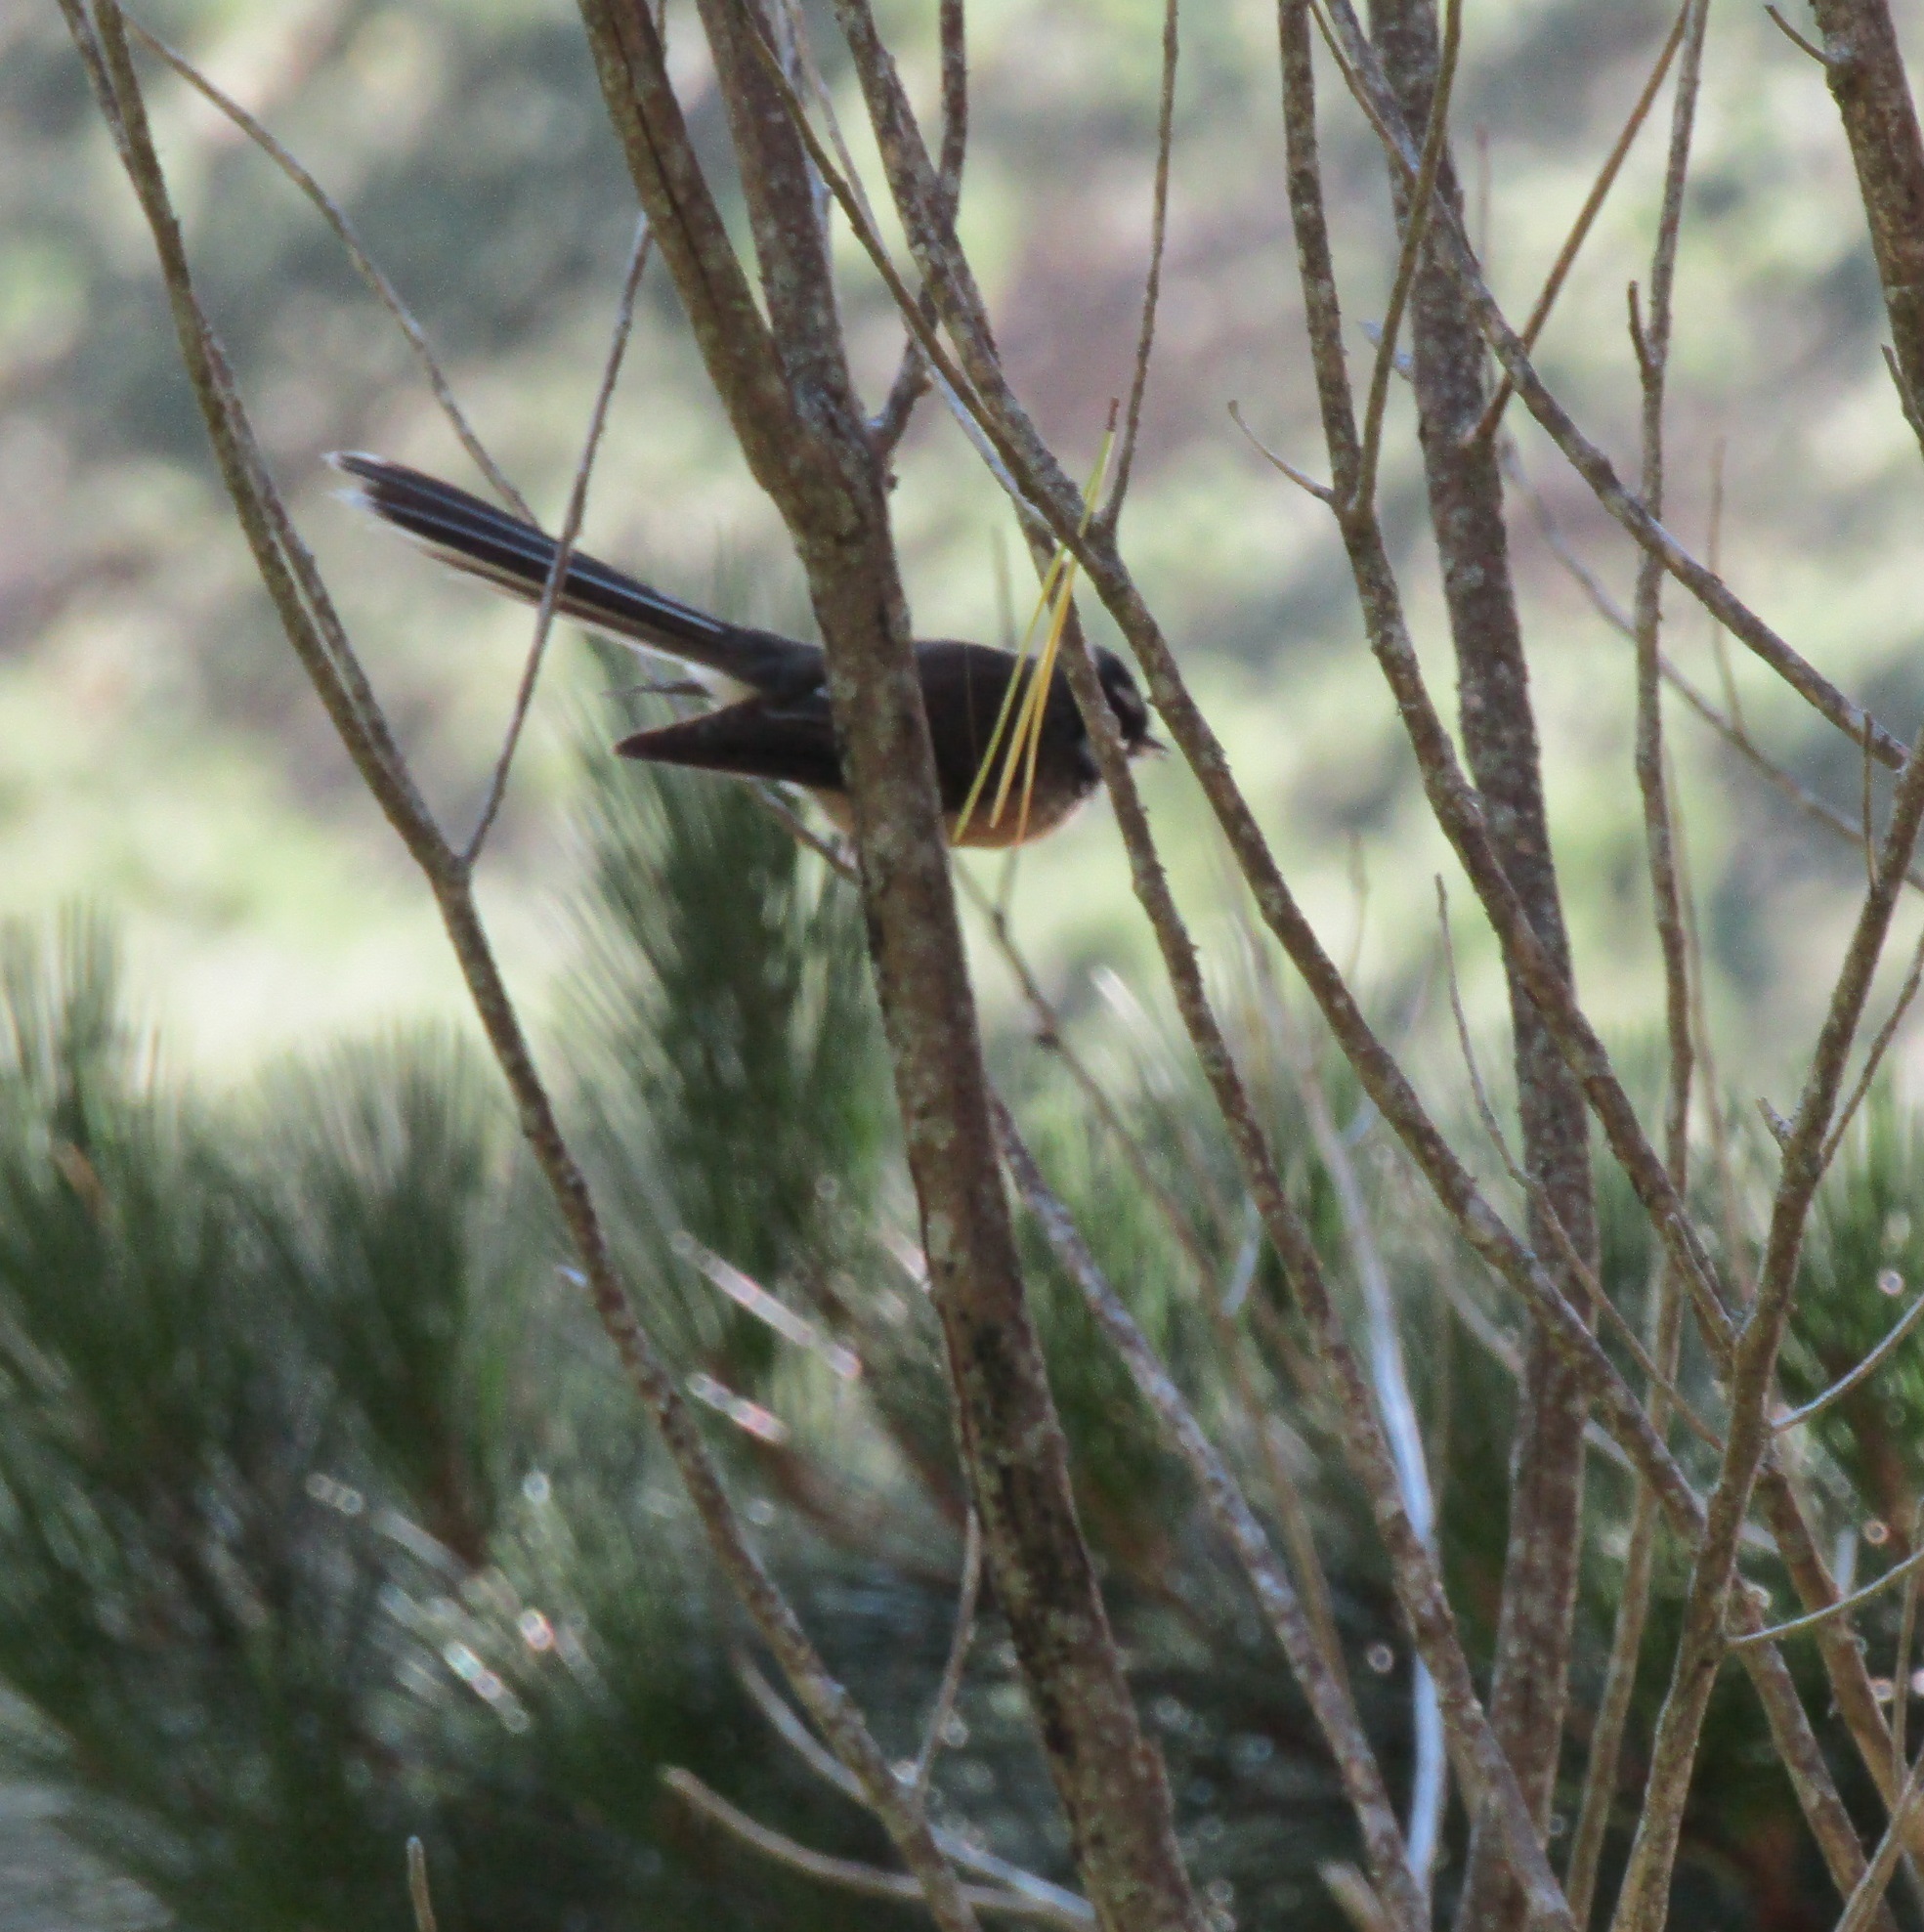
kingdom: Animalia
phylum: Chordata
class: Aves
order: Passeriformes
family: Rhipiduridae
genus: Rhipidura
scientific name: Rhipidura fuliginosa
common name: New zealand fantail
